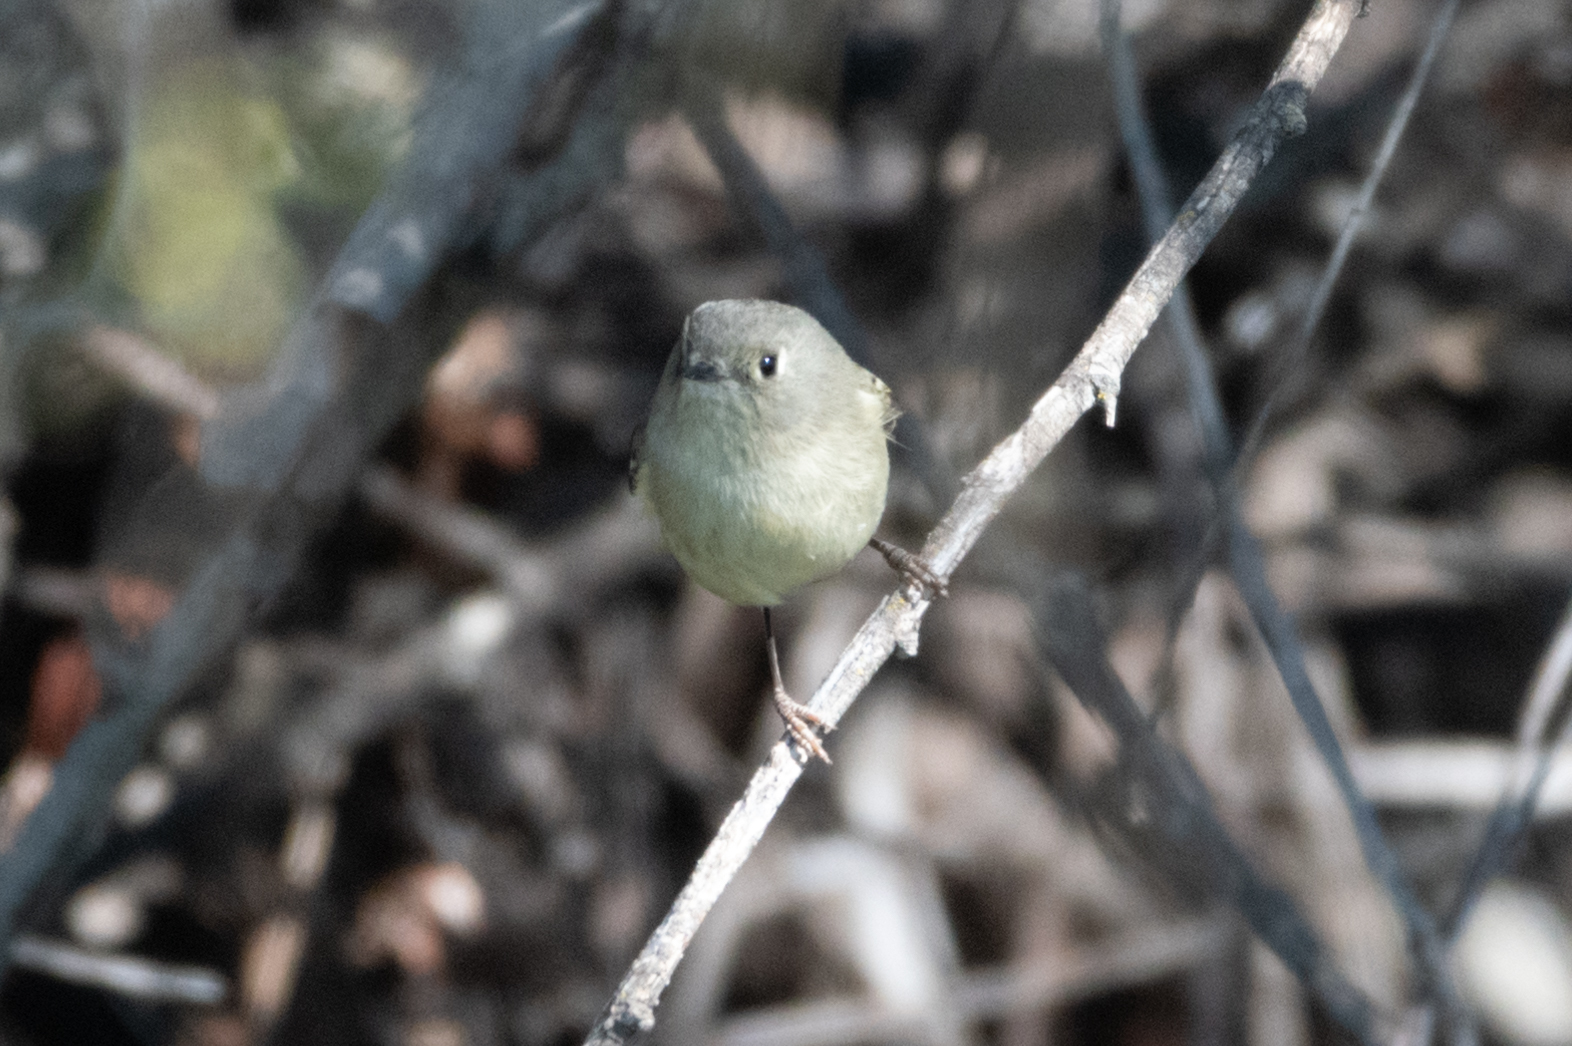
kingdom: Animalia
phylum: Chordata
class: Aves
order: Passeriformes
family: Regulidae
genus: Regulus
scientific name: Regulus calendula
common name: Ruby-crowned kinglet
